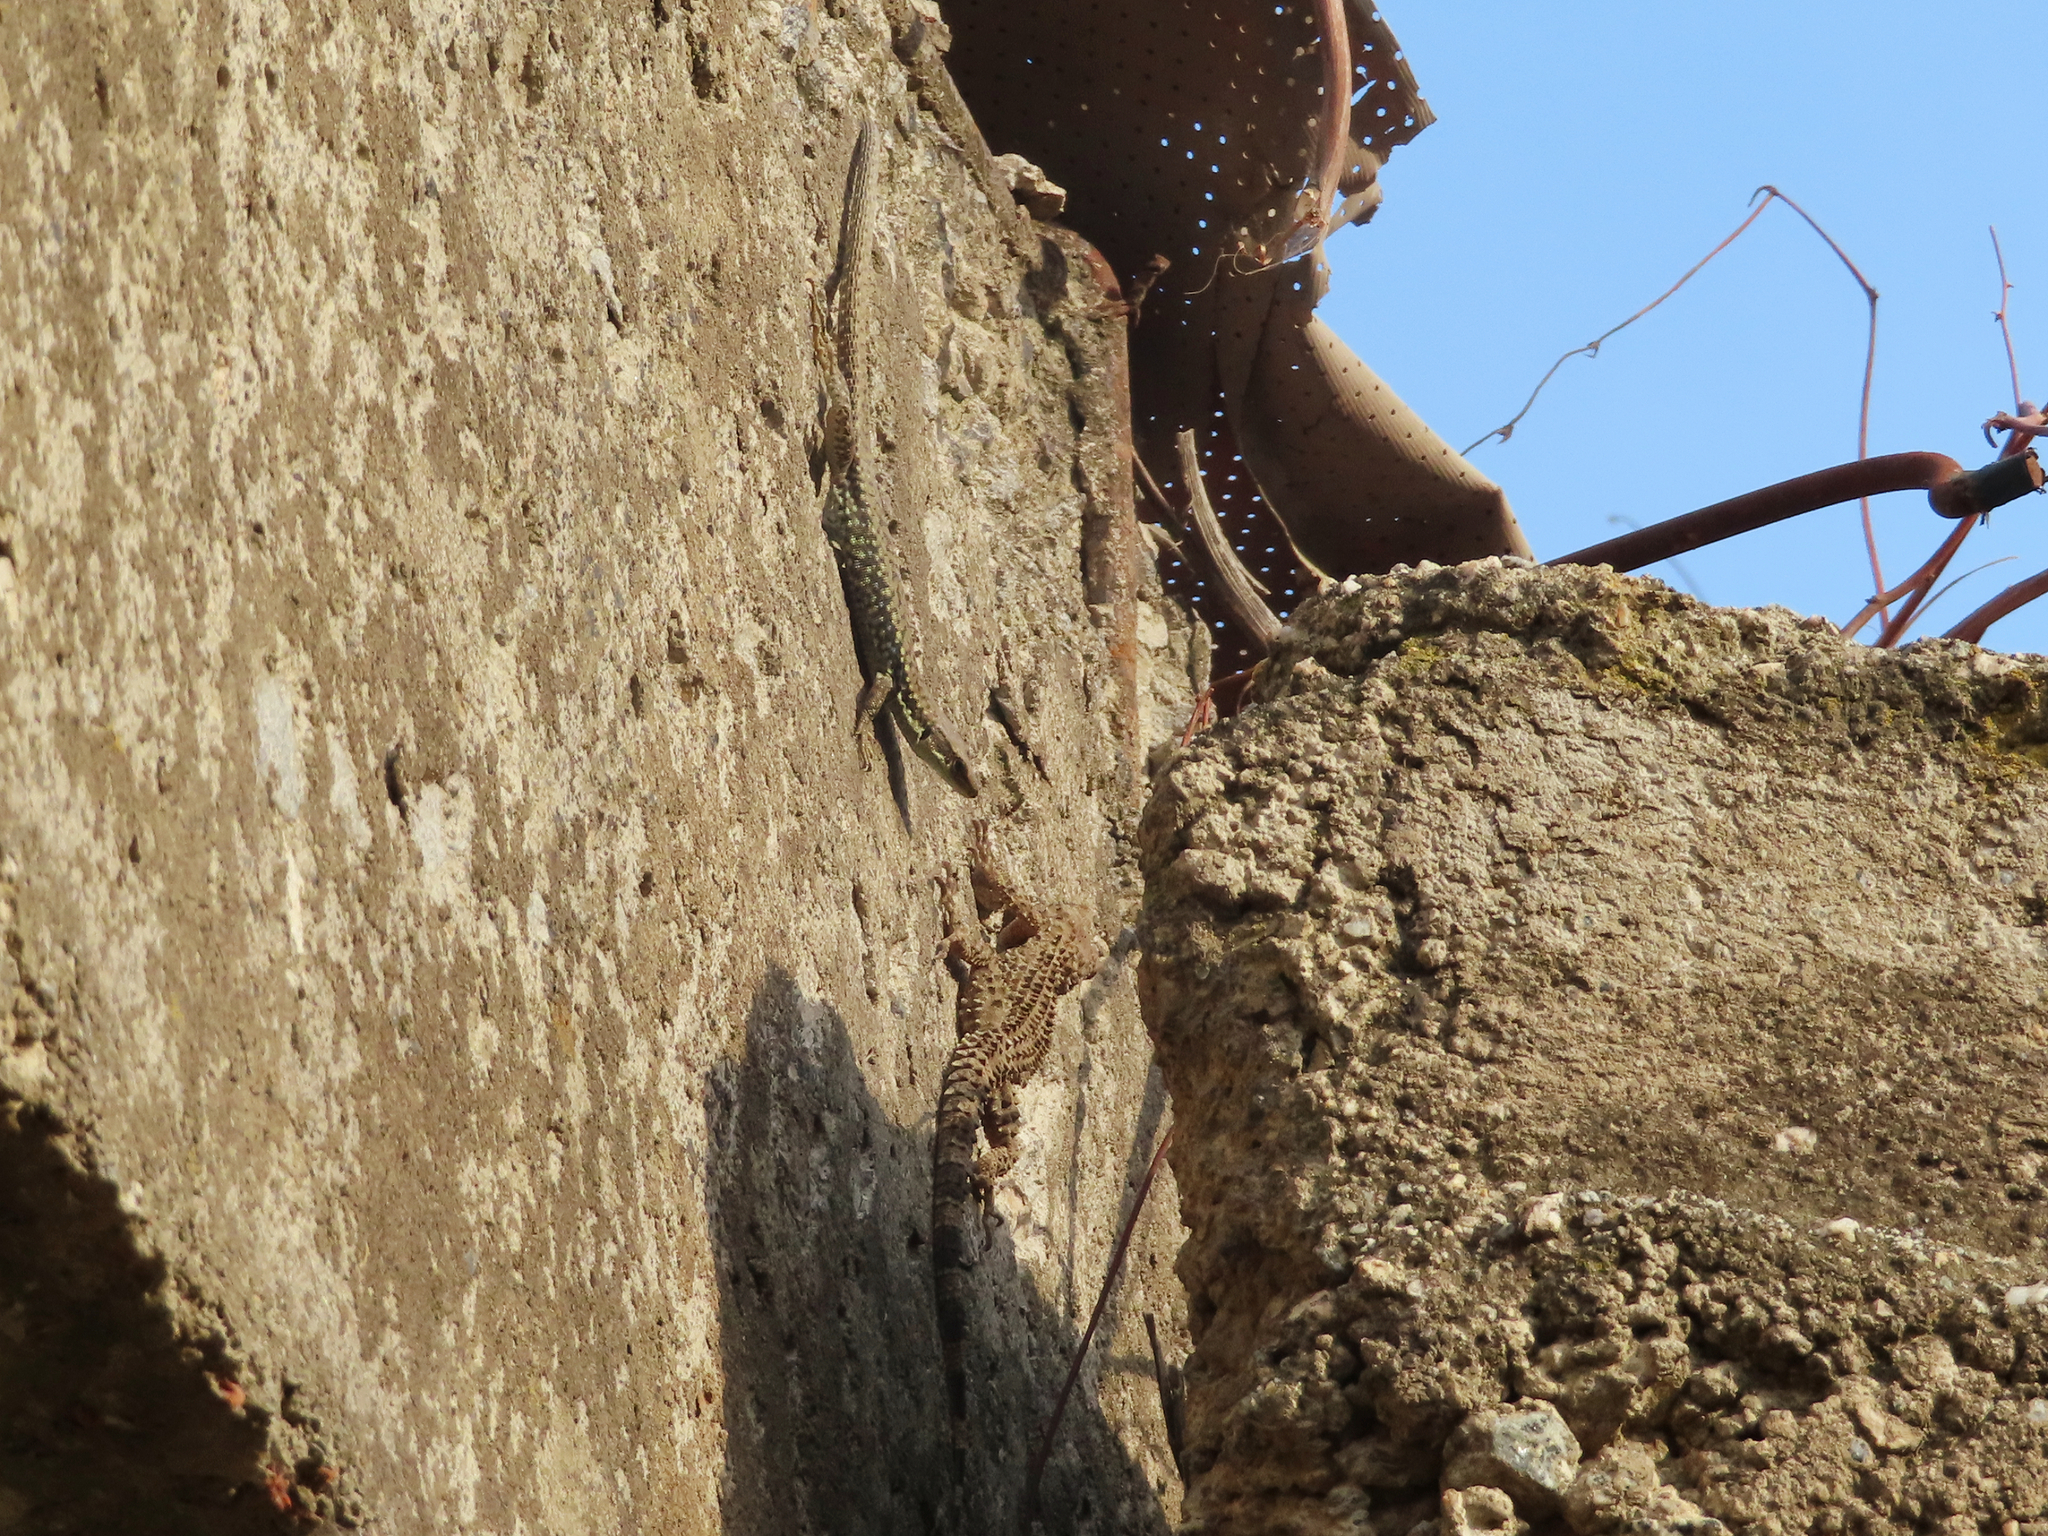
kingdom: Animalia
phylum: Chordata
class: Squamata
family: Gekkonidae
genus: Tenuidactylus
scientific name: Tenuidactylus caspius
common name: Caspian bent-toed gecko
